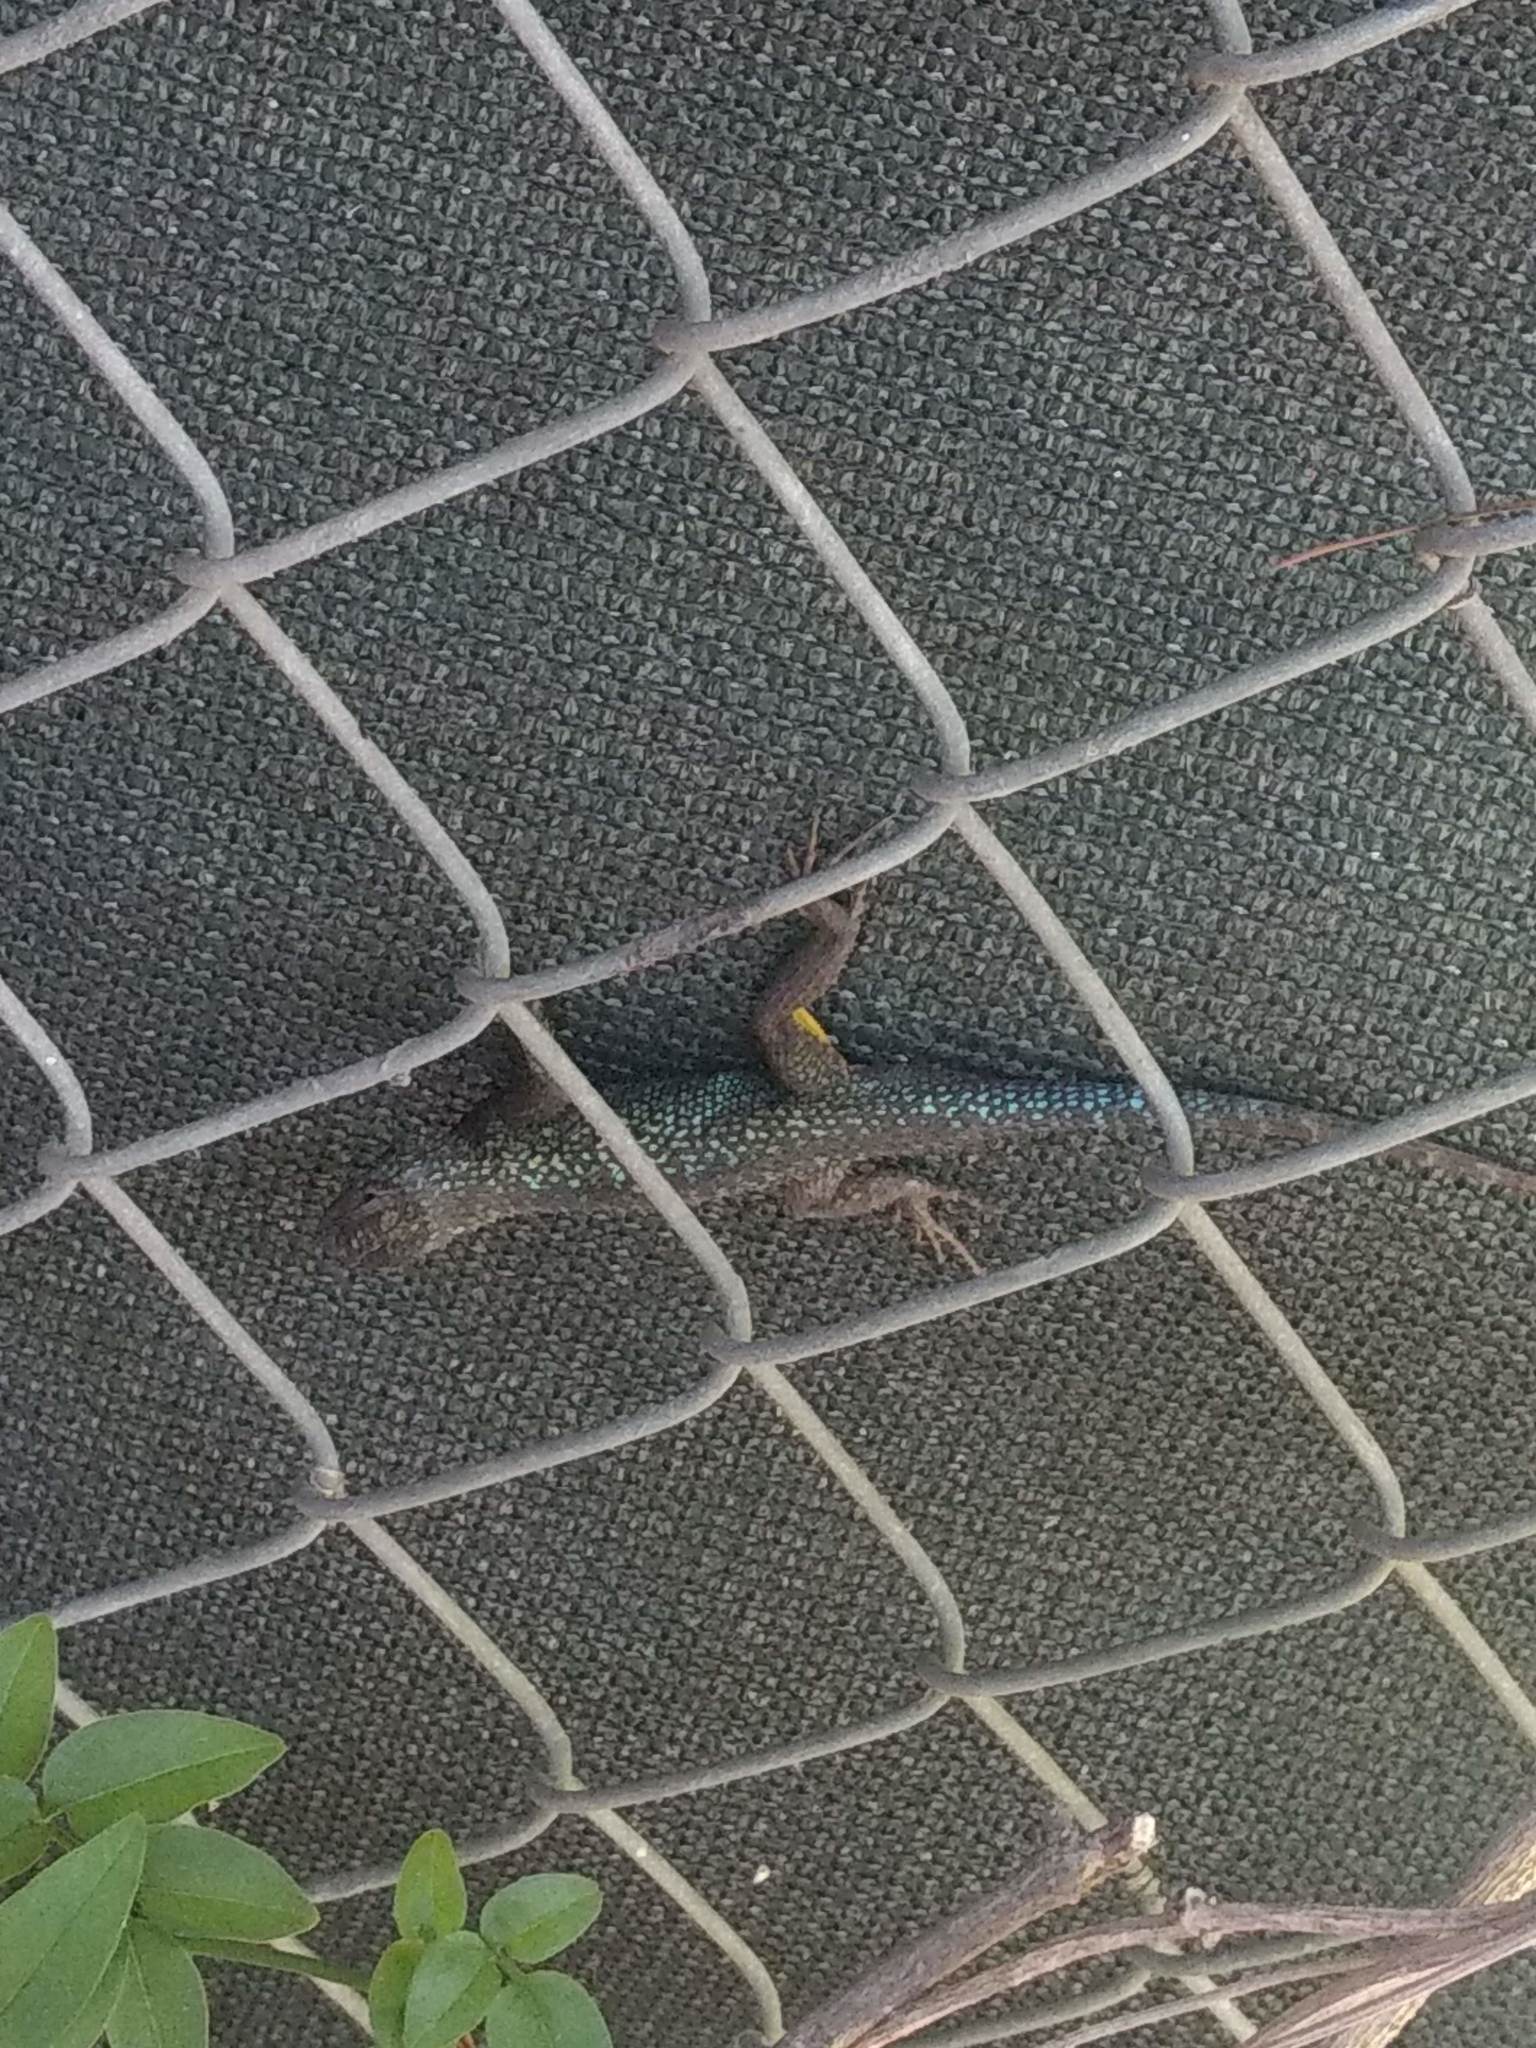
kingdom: Animalia
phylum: Chordata
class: Squamata
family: Phrynosomatidae
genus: Sceloporus
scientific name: Sceloporus occidentalis
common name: Western fence lizard
